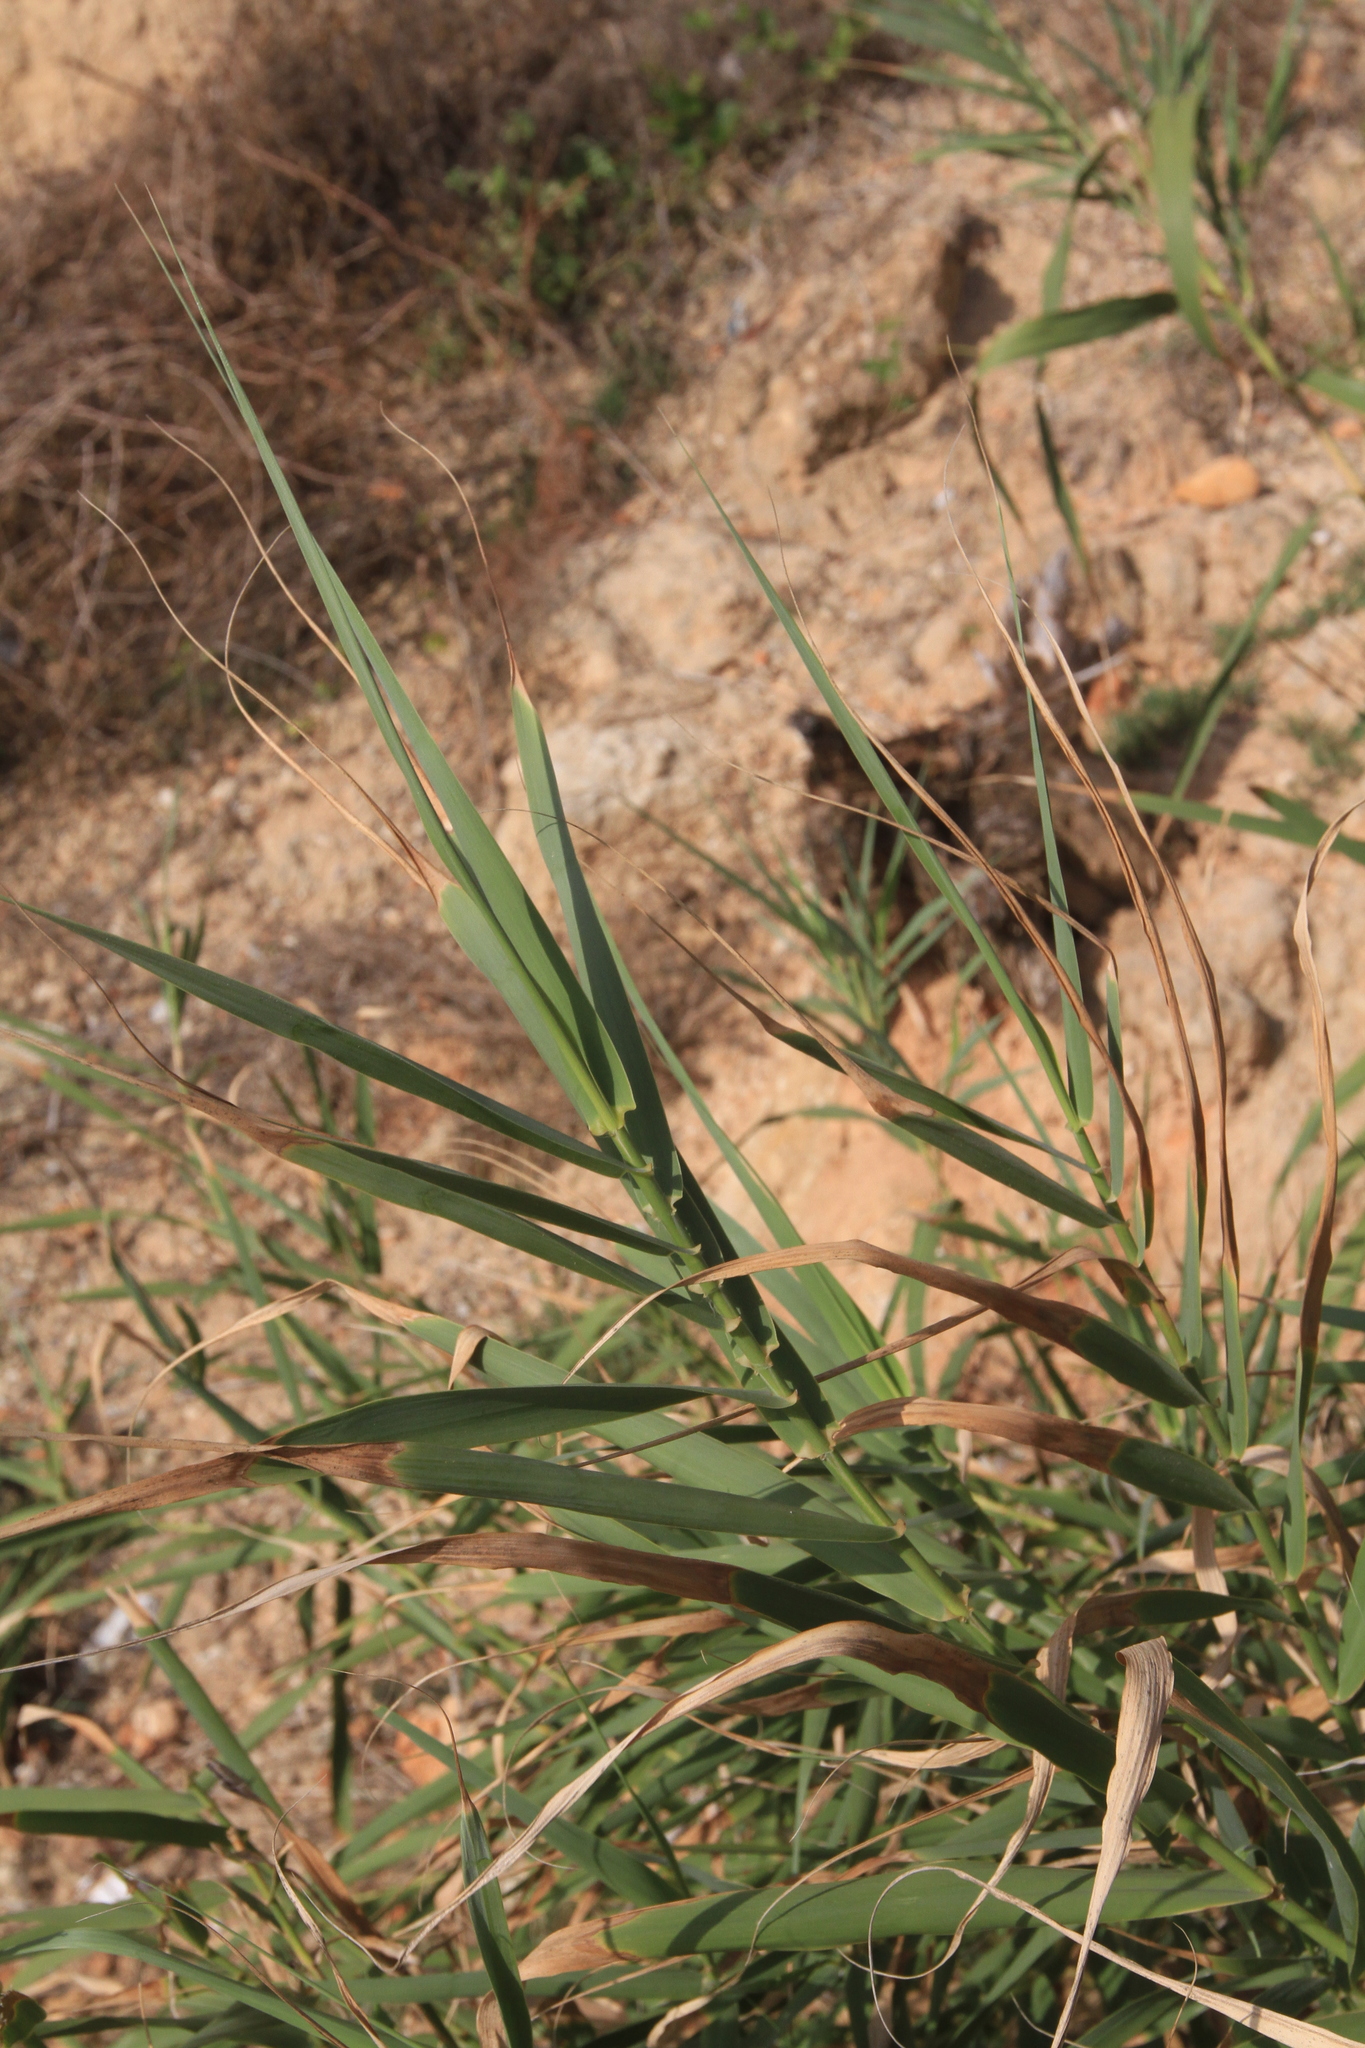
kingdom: Plantae
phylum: Tracheophyta
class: Liliopsida
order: Poales
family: Poaceae
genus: Arundo
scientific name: Arundo donax
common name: Giant reed
